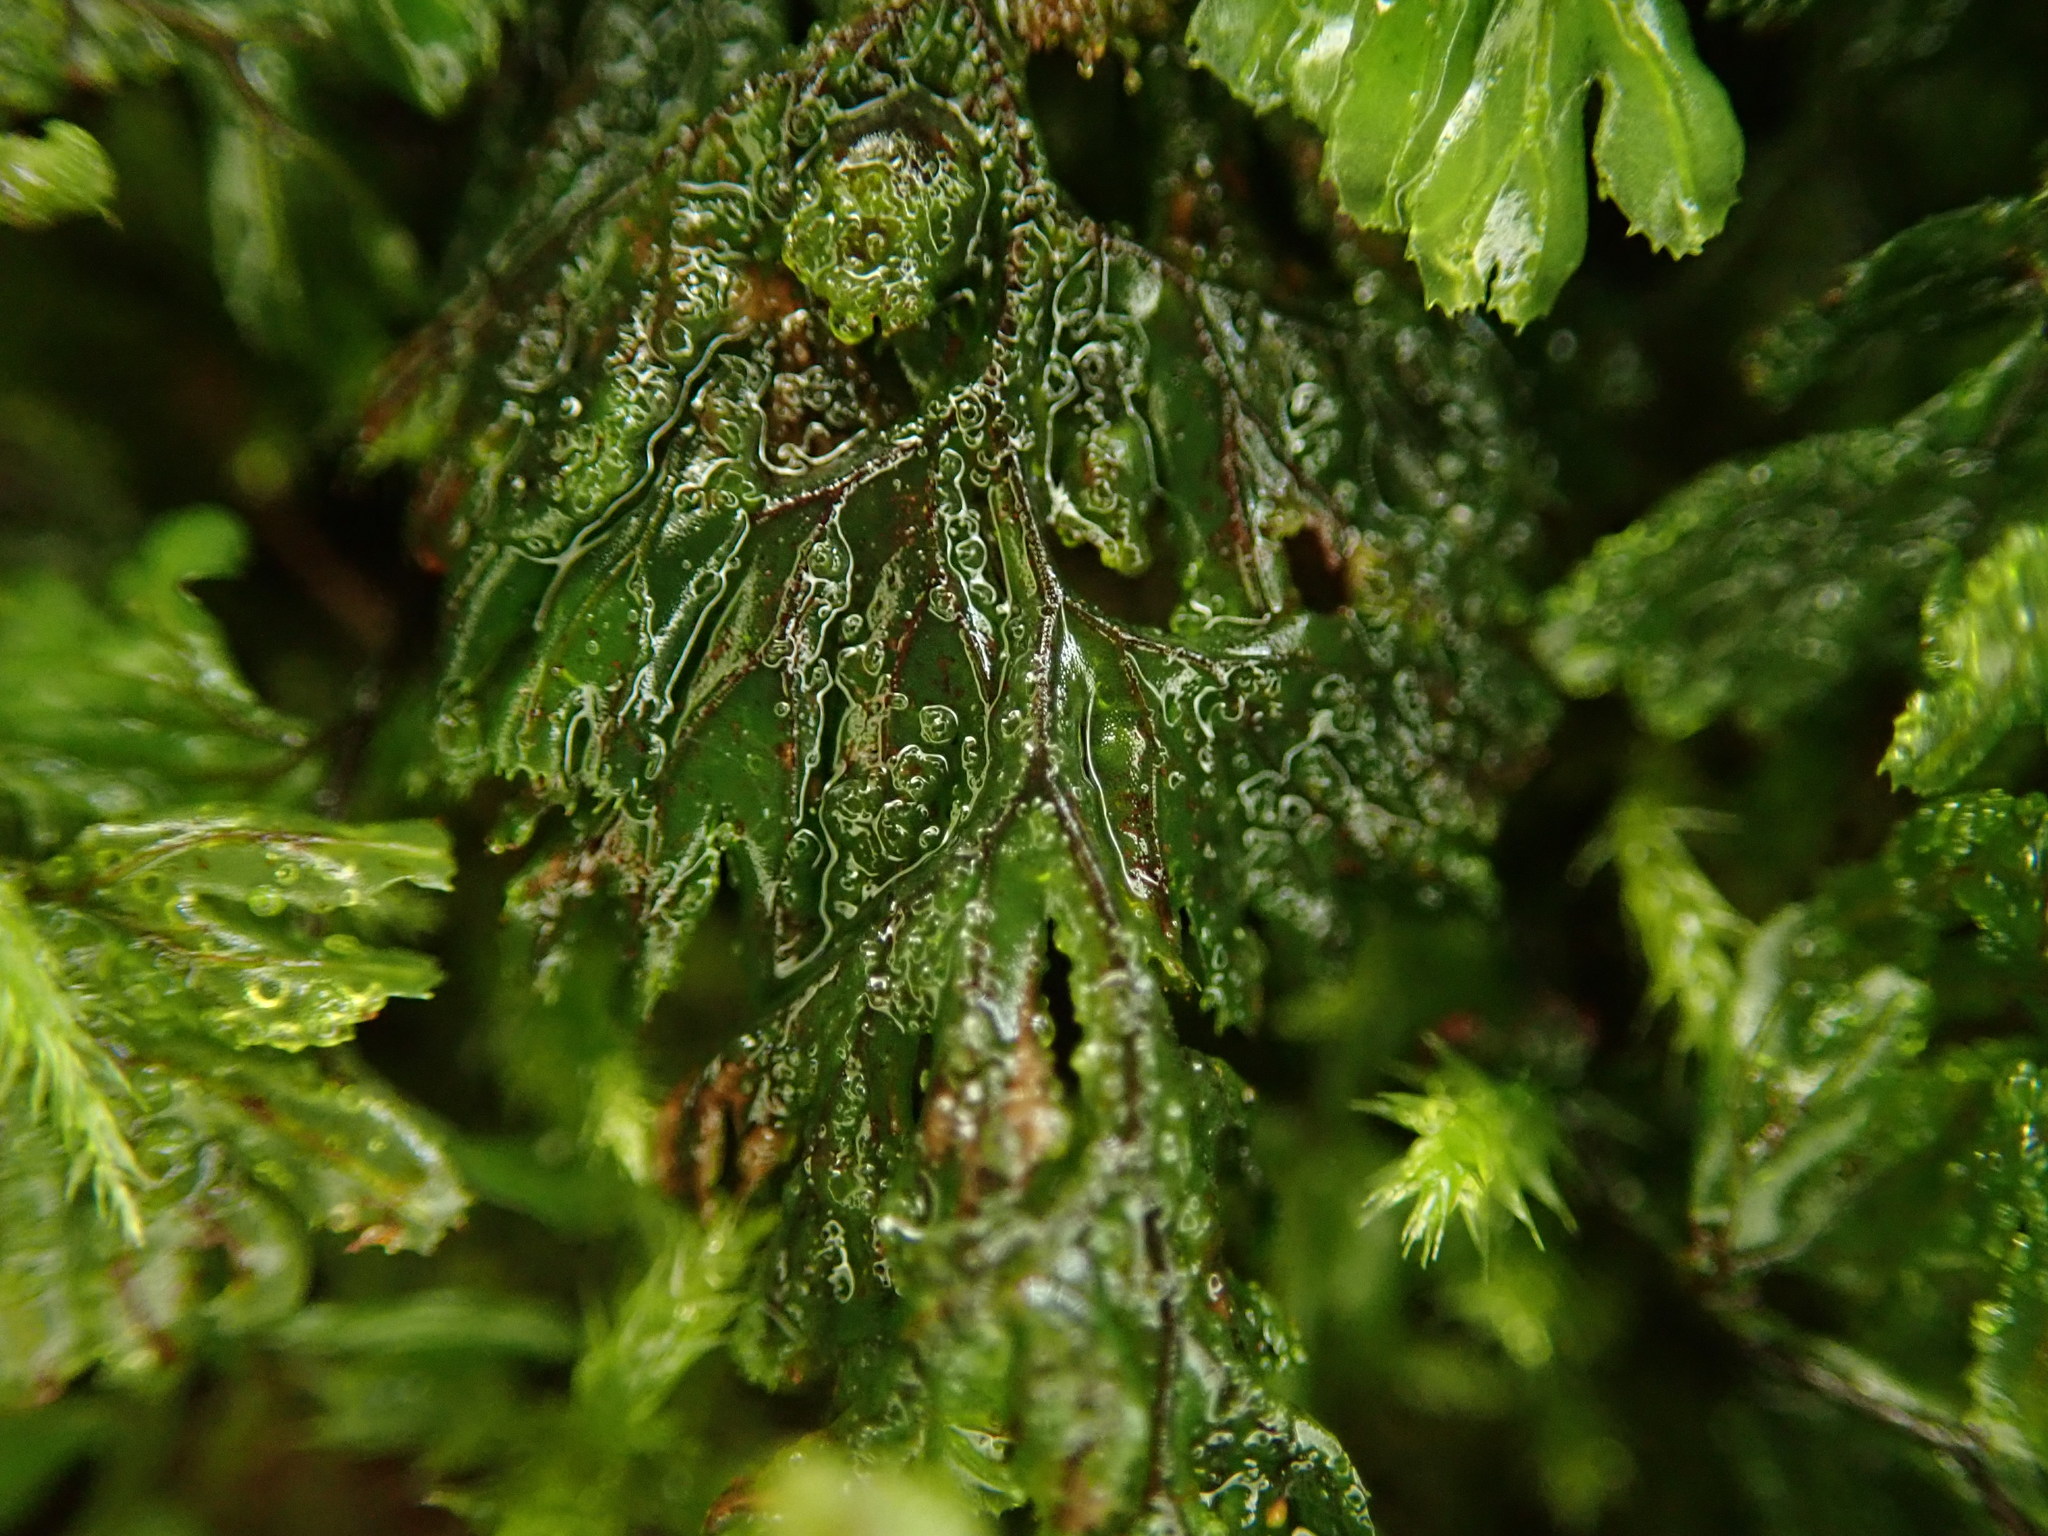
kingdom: Plantae
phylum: Tracheophyta
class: Polypodiopsida
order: Hymenophyllales
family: Hymenophyllaceae
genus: Hymenophyllum
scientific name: Hymenophyllum tunbrigense
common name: Tunbridge filmy fern
